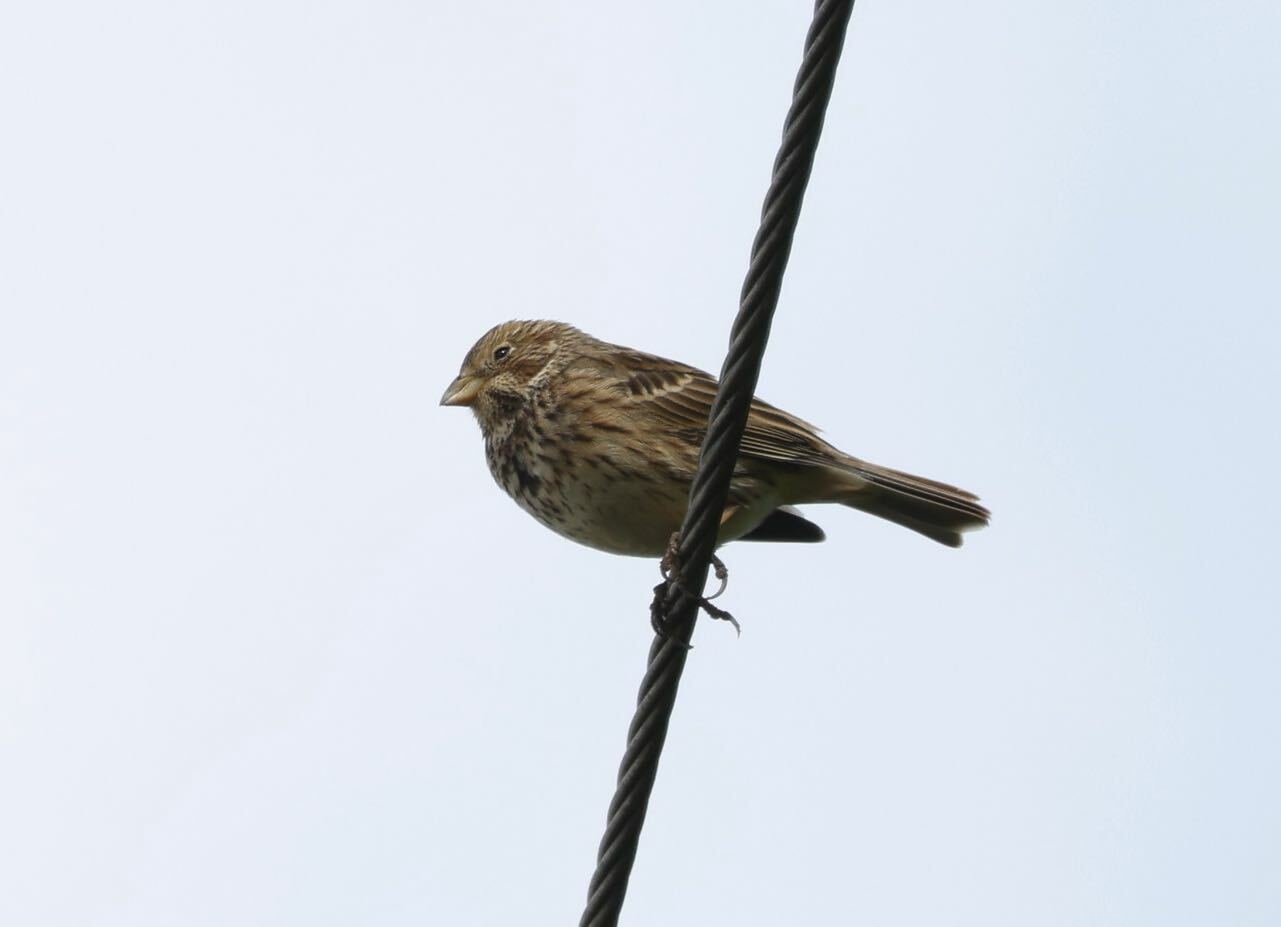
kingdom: Animalia
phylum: Chordata
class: Aves
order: Passeriformes
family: Emberizidae
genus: Emberiza
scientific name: Emberiza calandra
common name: Corn bunting
